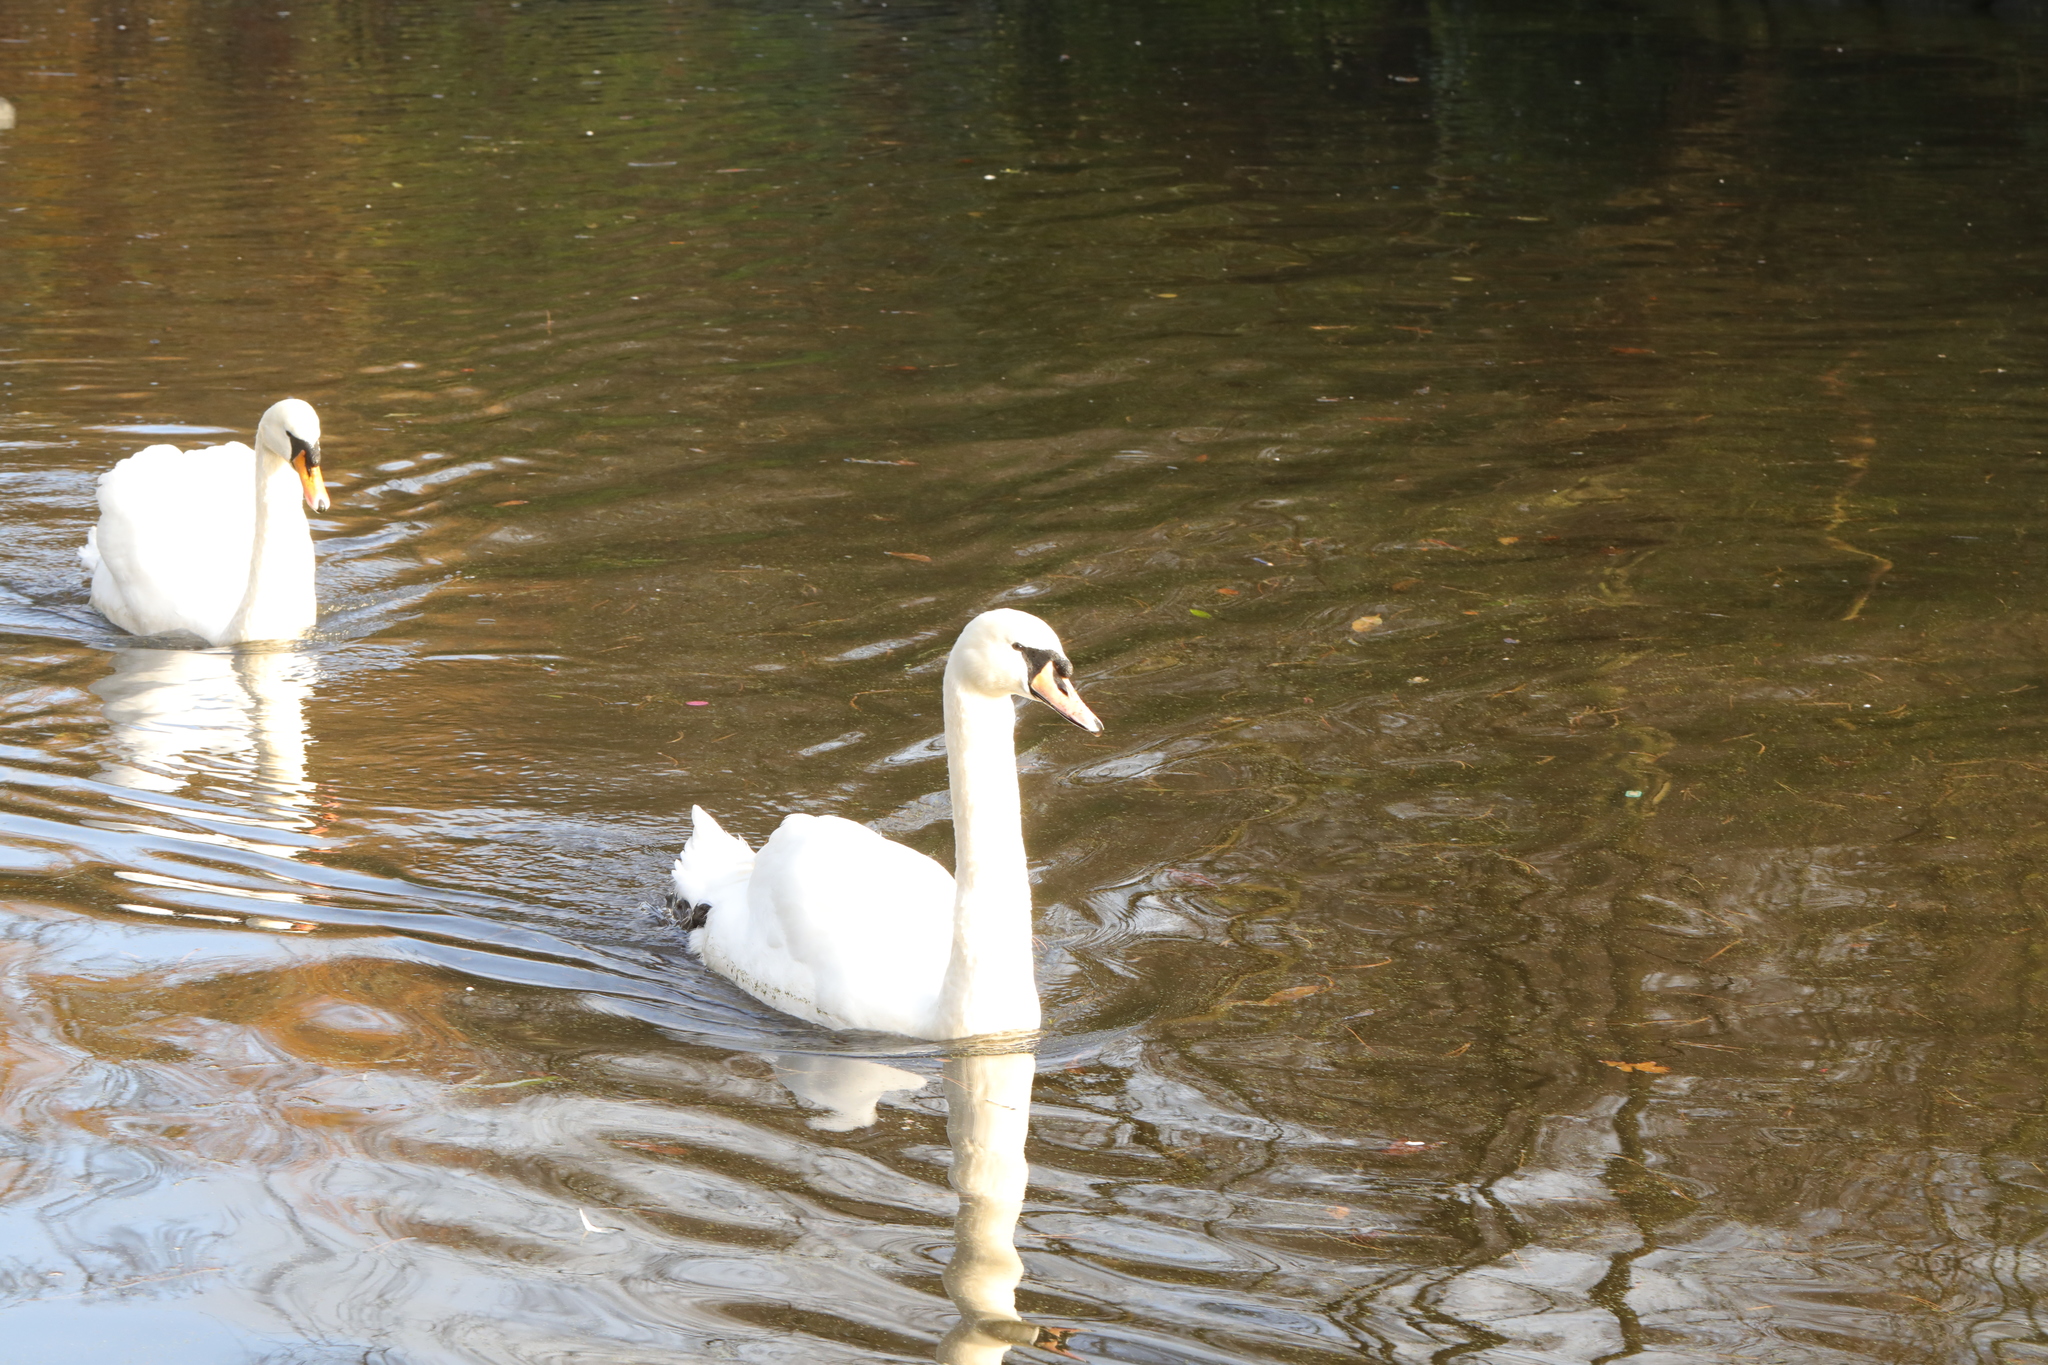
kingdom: Animalia
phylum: Chordata
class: Aves
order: Anseriformes
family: Anatidae
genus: Cygnus
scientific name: Cygnus olor
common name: Mute swan
